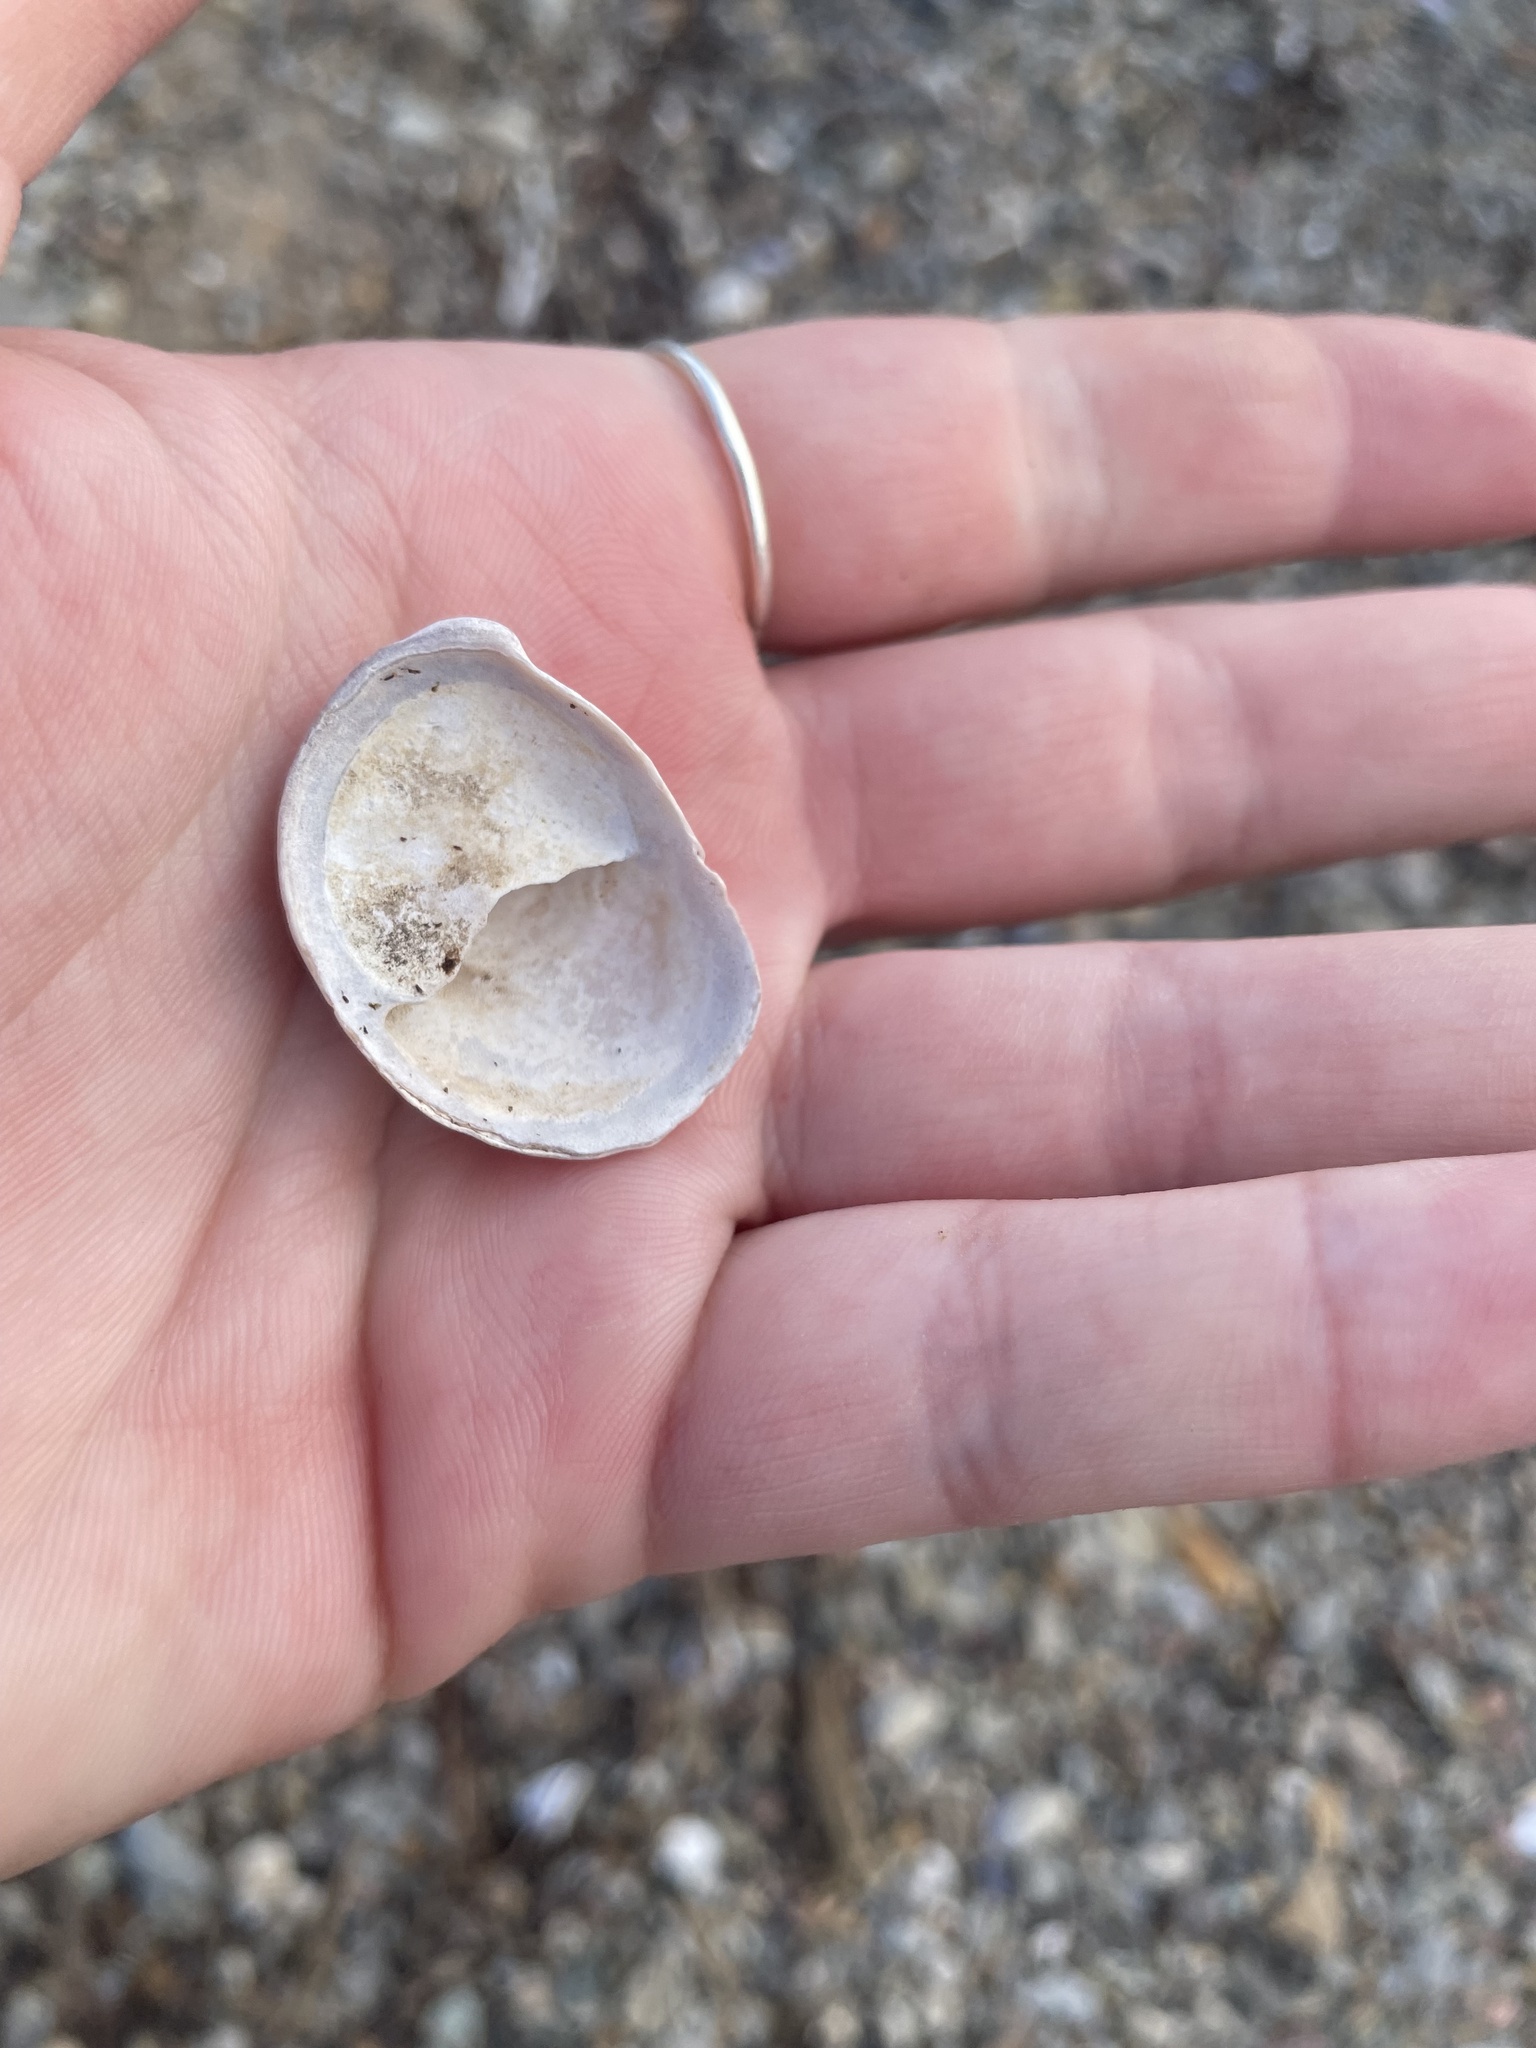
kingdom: Animalia
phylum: Mollusca
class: Gastropoda
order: Littorinimorpha
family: Calyptraeidae
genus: Crepidula
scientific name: Crepidula fornicata
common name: Slipper limpet
